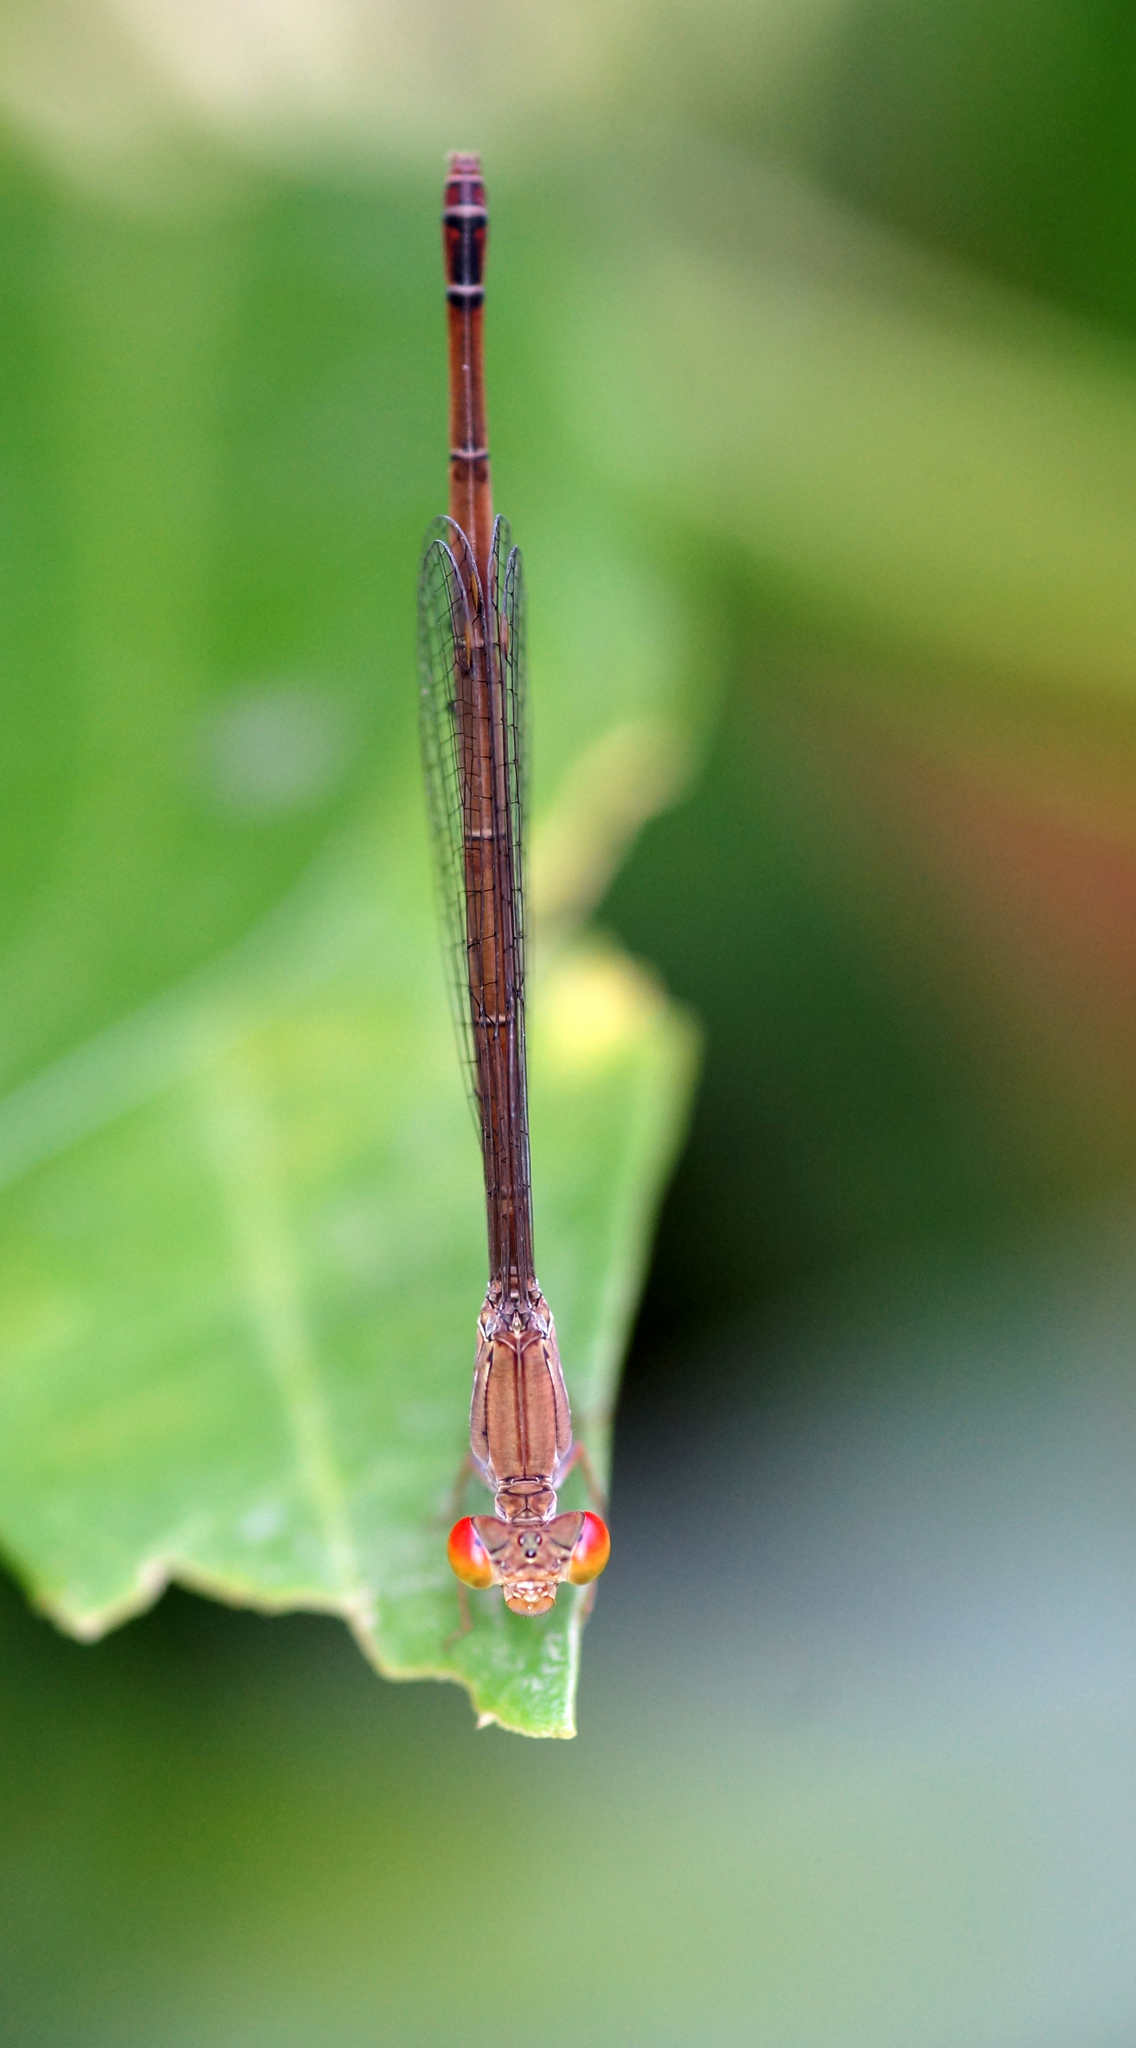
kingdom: Animalia
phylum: Arthropoda
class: Insecta
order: Odonata
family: Coenagrionidae
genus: Ceriagrion
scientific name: Ceriagrion praetermissum
